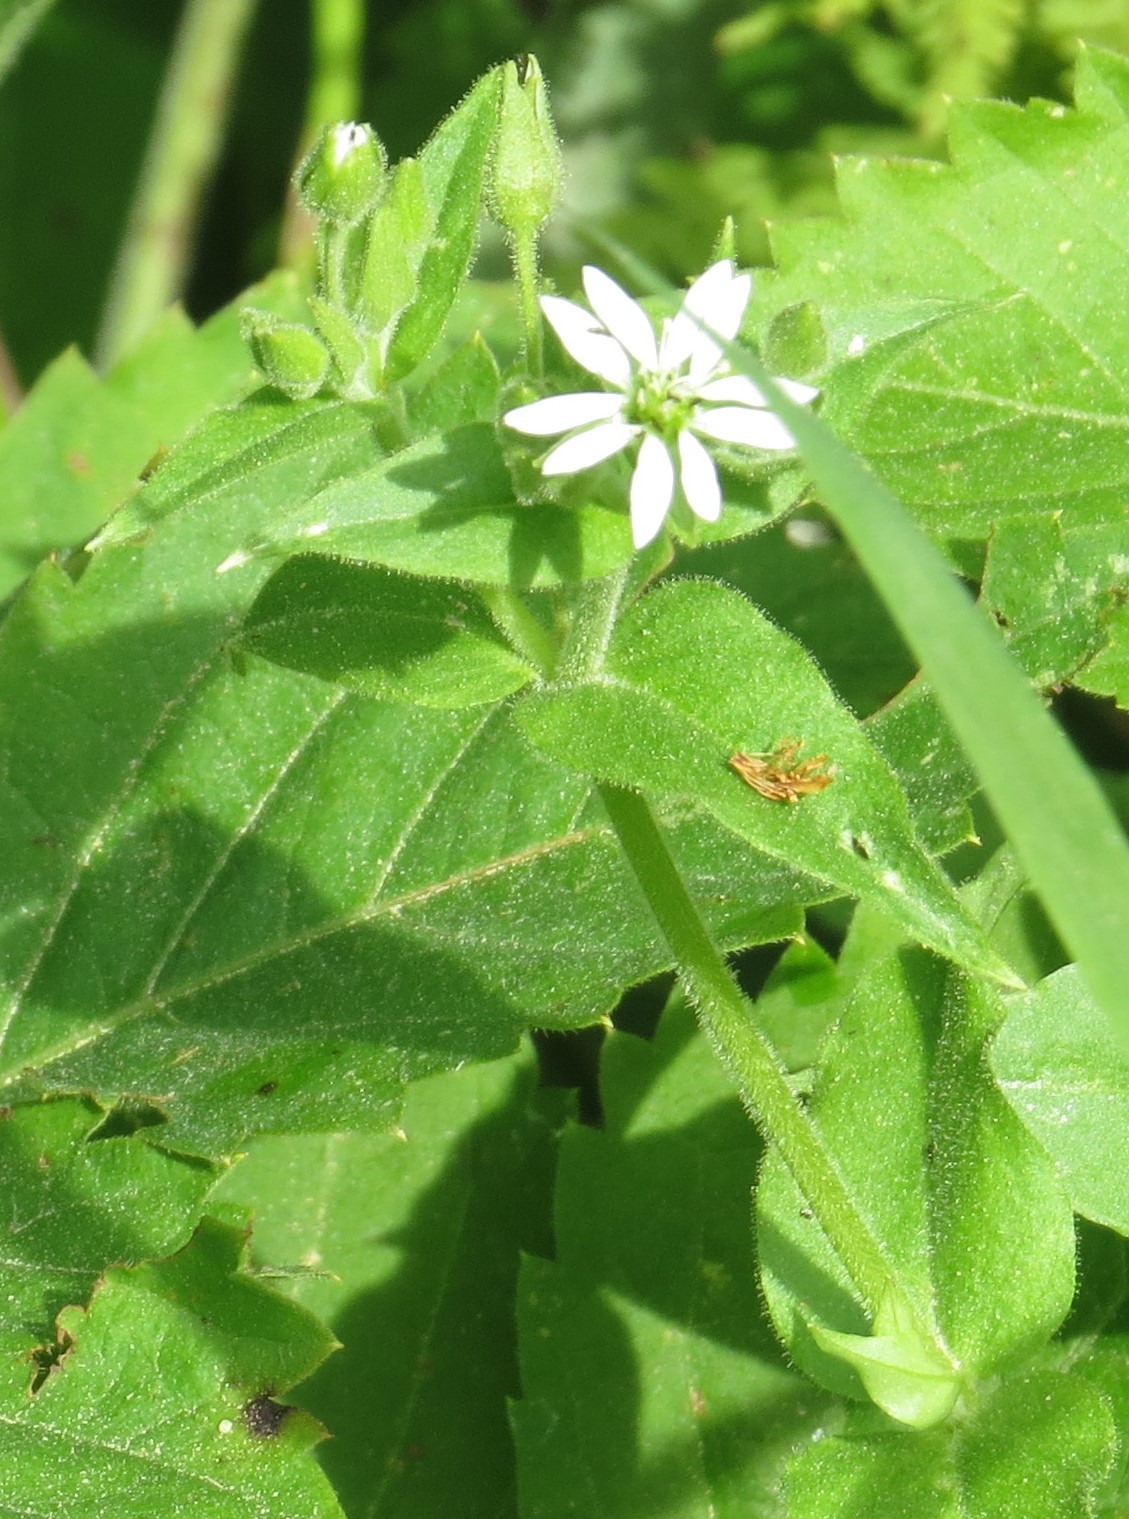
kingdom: Plantae
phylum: Tracheophyta
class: Magnoliopsida
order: Caryophyllales
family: Caryophyllaceae
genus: Stellaria
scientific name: Stellaria aquatica
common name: Water chickweed
